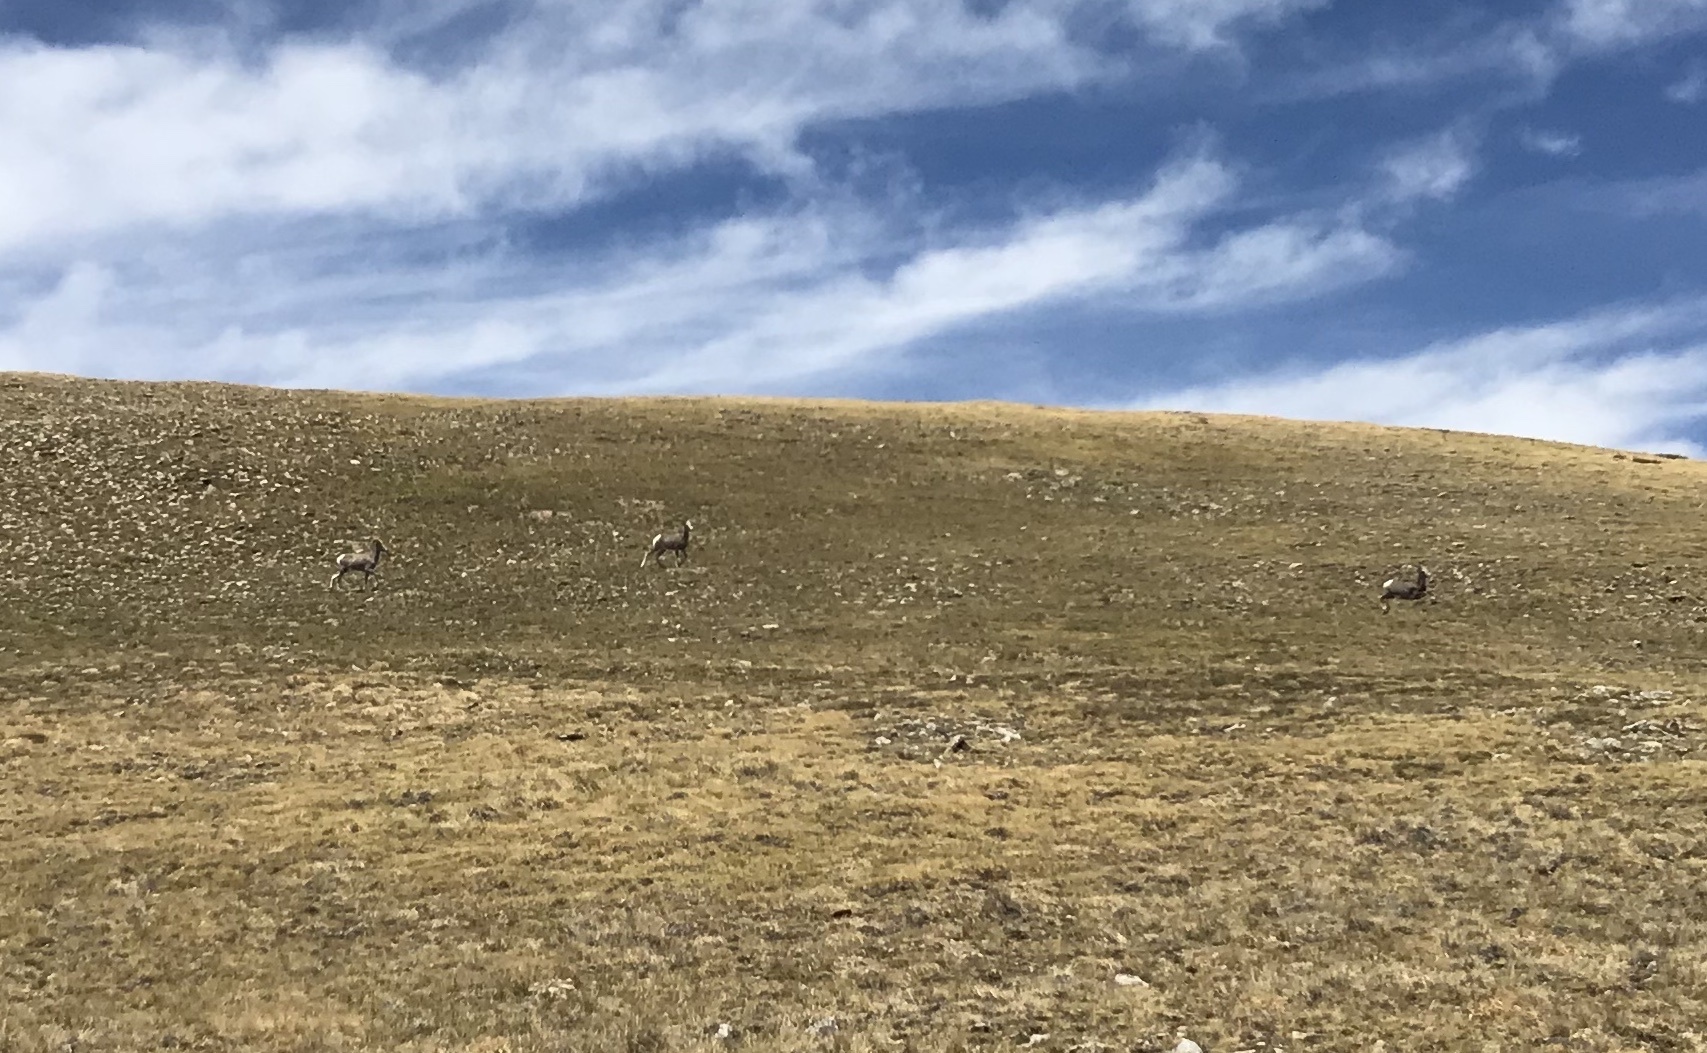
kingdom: Animalia
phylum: Chordata
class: Mammalia
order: Artiodactyla
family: Bovidae
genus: Ovis
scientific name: Ovis canadensis
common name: Bighorn sheep
